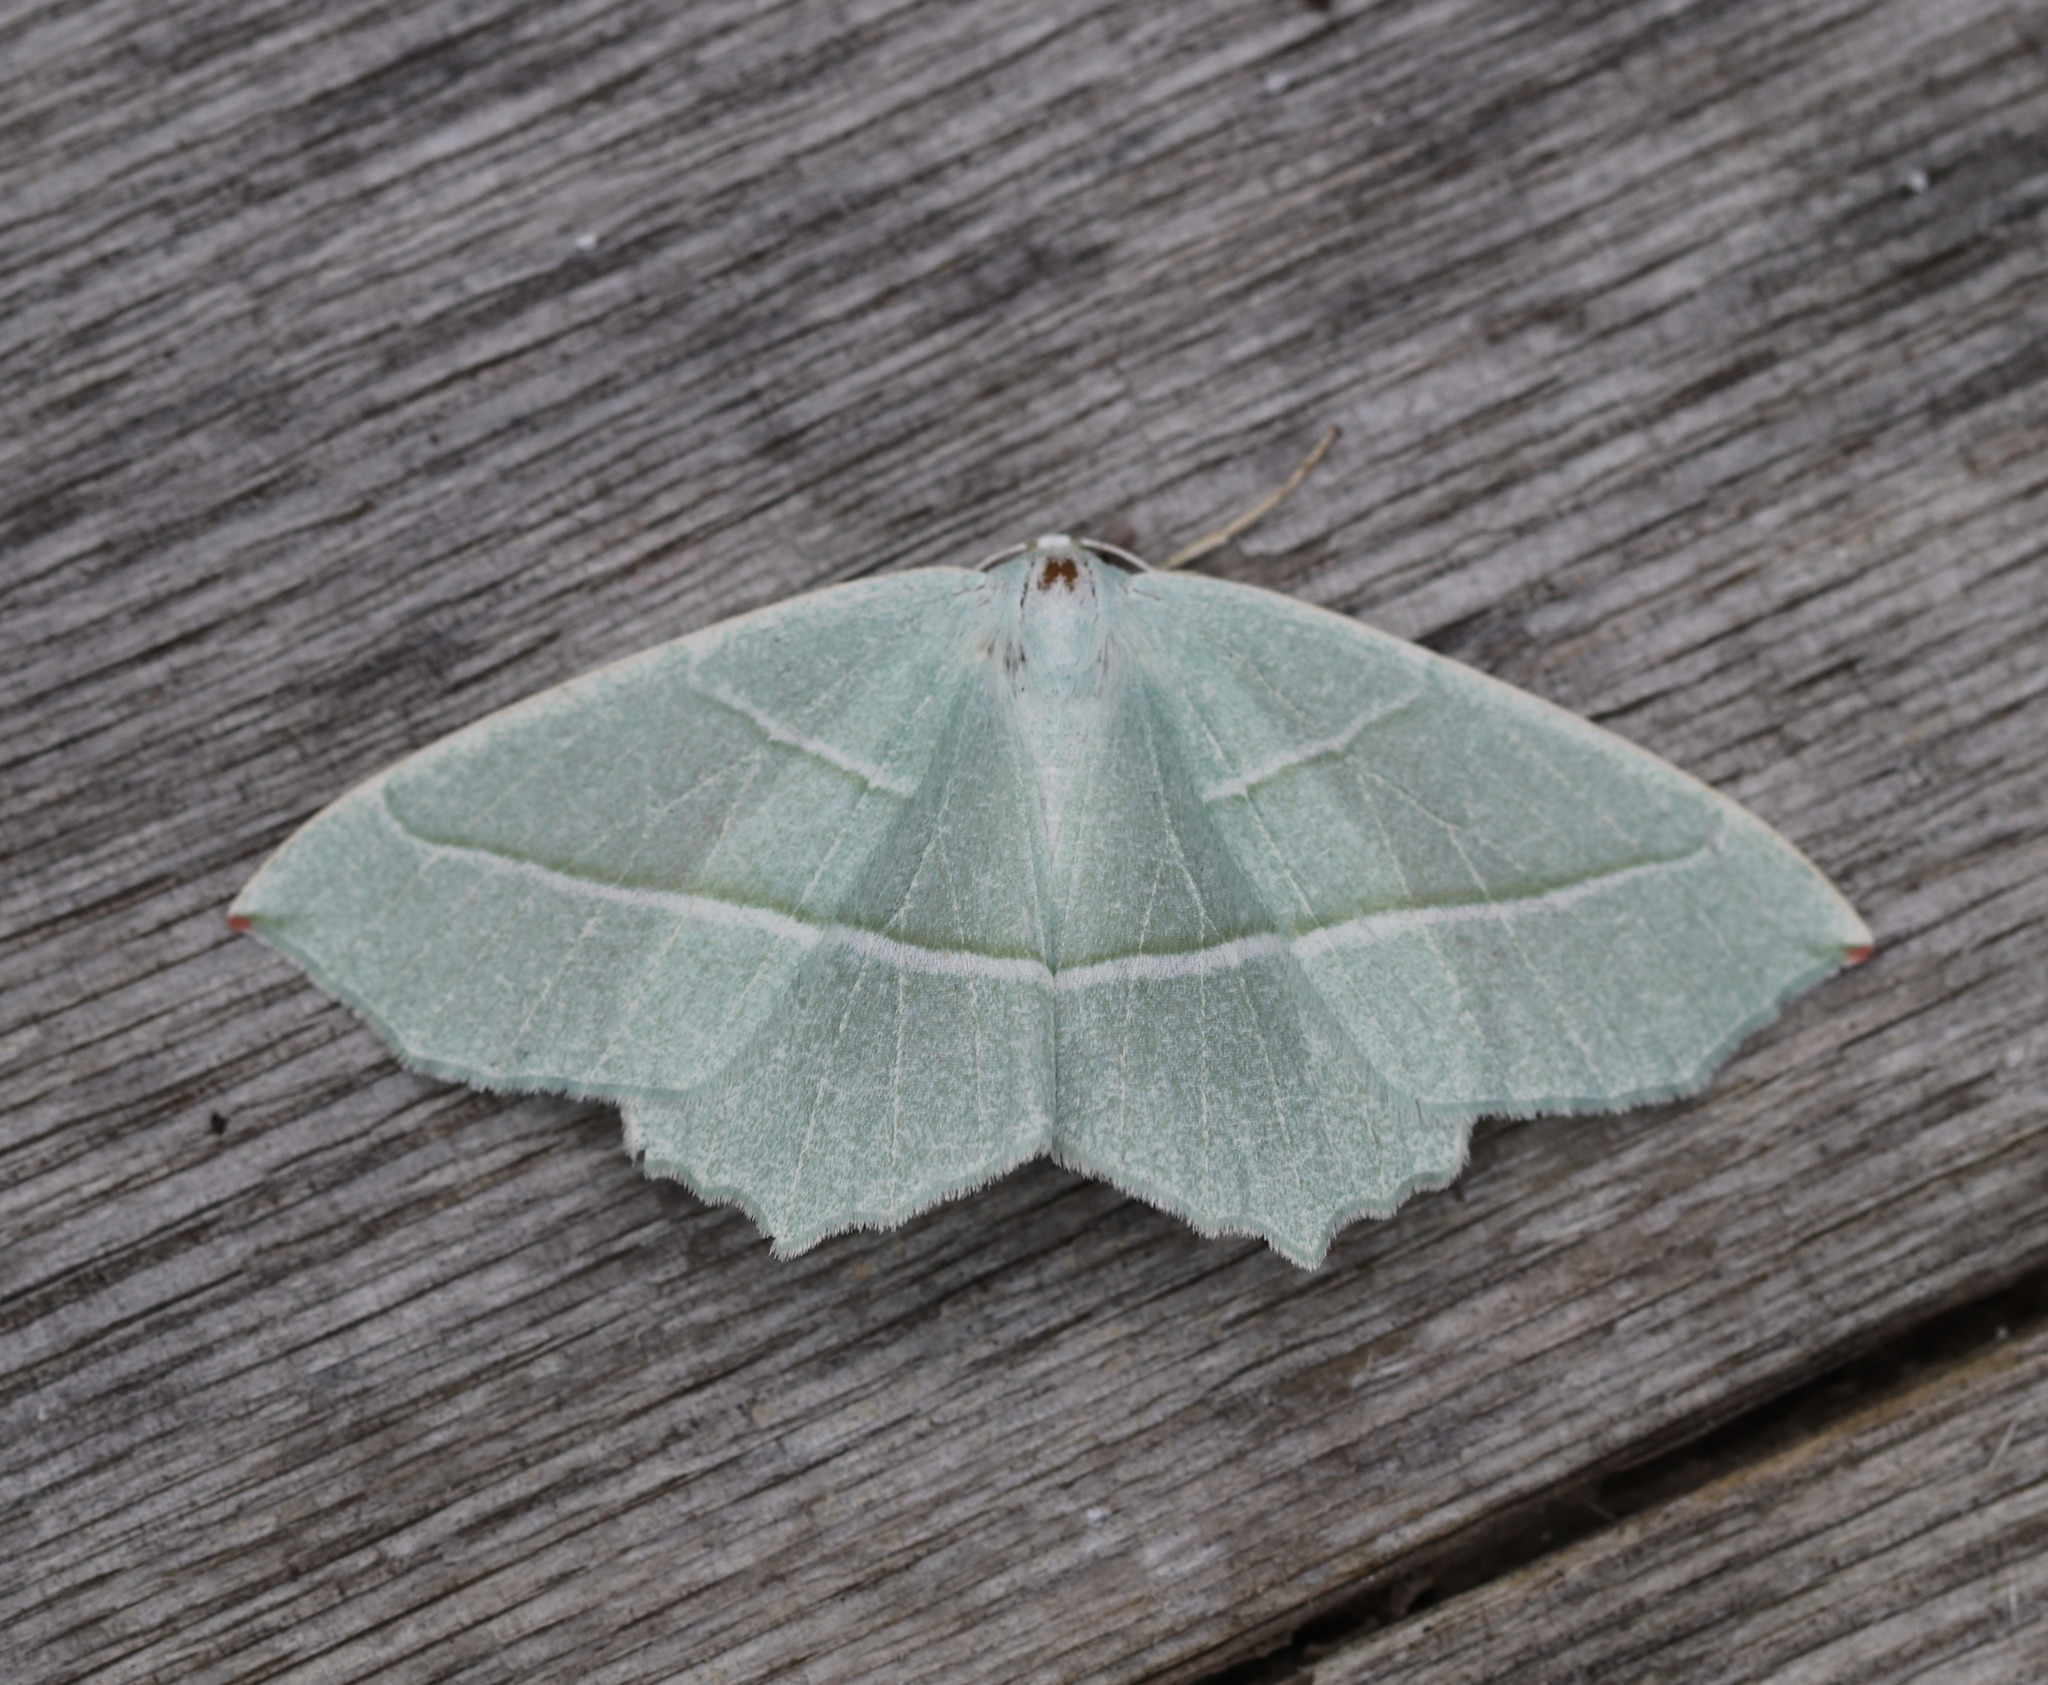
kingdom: Animalia
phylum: Arthropoda
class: Insecta
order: Lepidoptera
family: Geometridae
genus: Campaea
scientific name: Campaea margaritaria
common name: Light emerald
